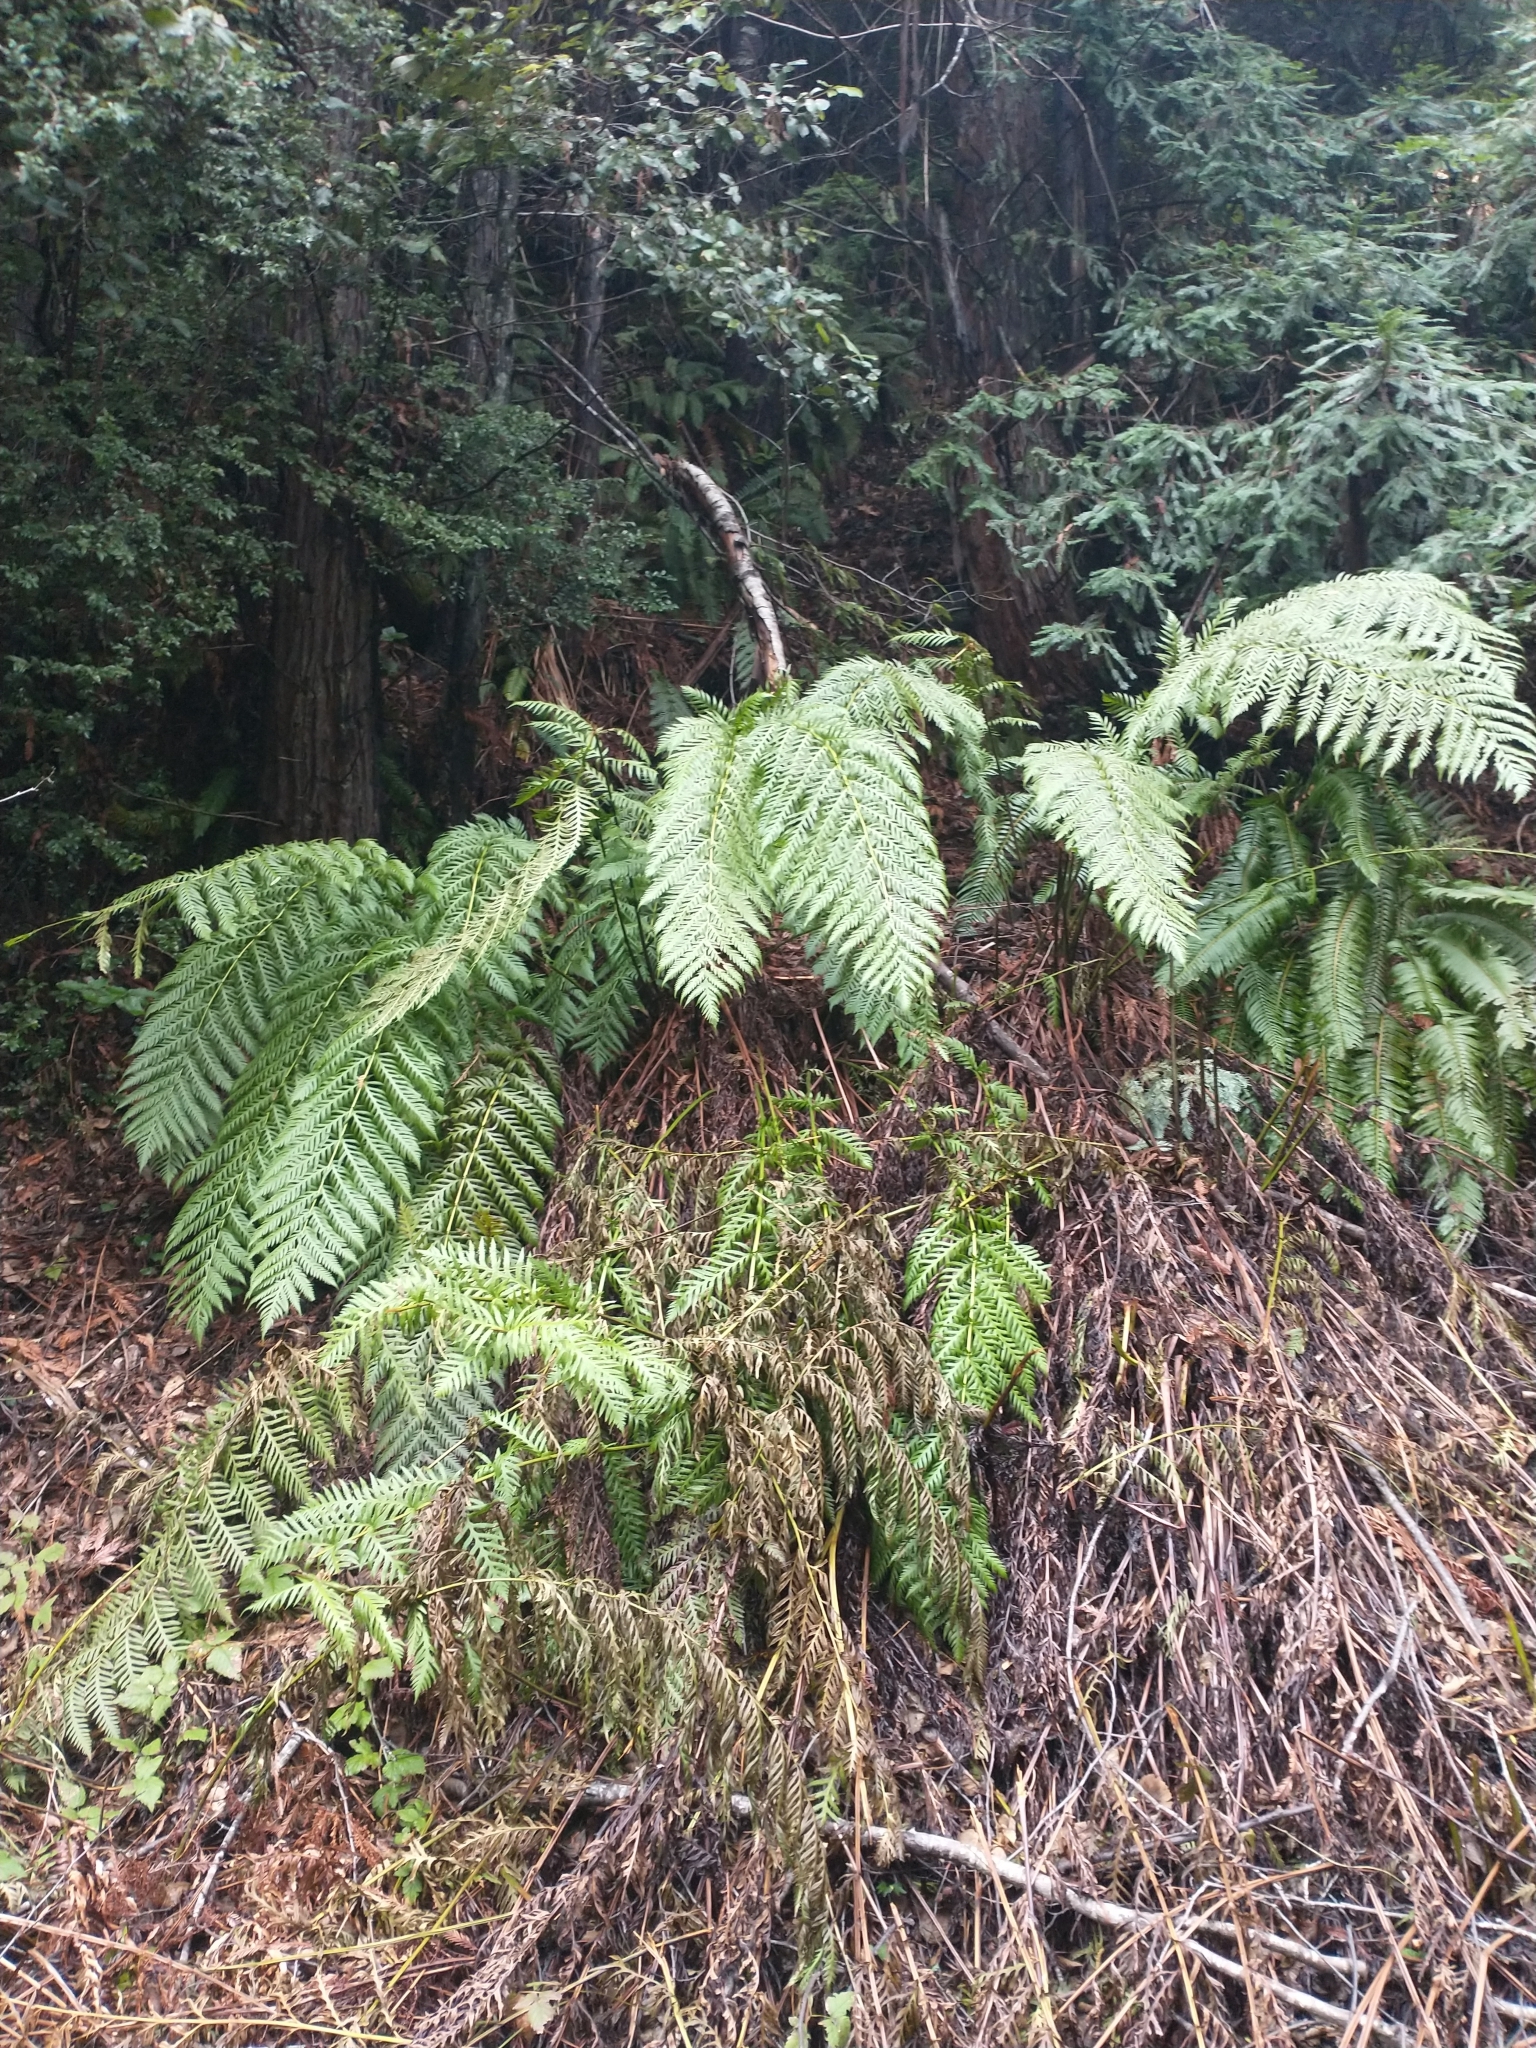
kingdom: Plantae
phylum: Tracheophyta
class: Polypodiopsida
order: Polypodiales
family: Blechnaceae
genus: Woodwardia
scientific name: Woodwardia fimbriata
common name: Giant chain fern
